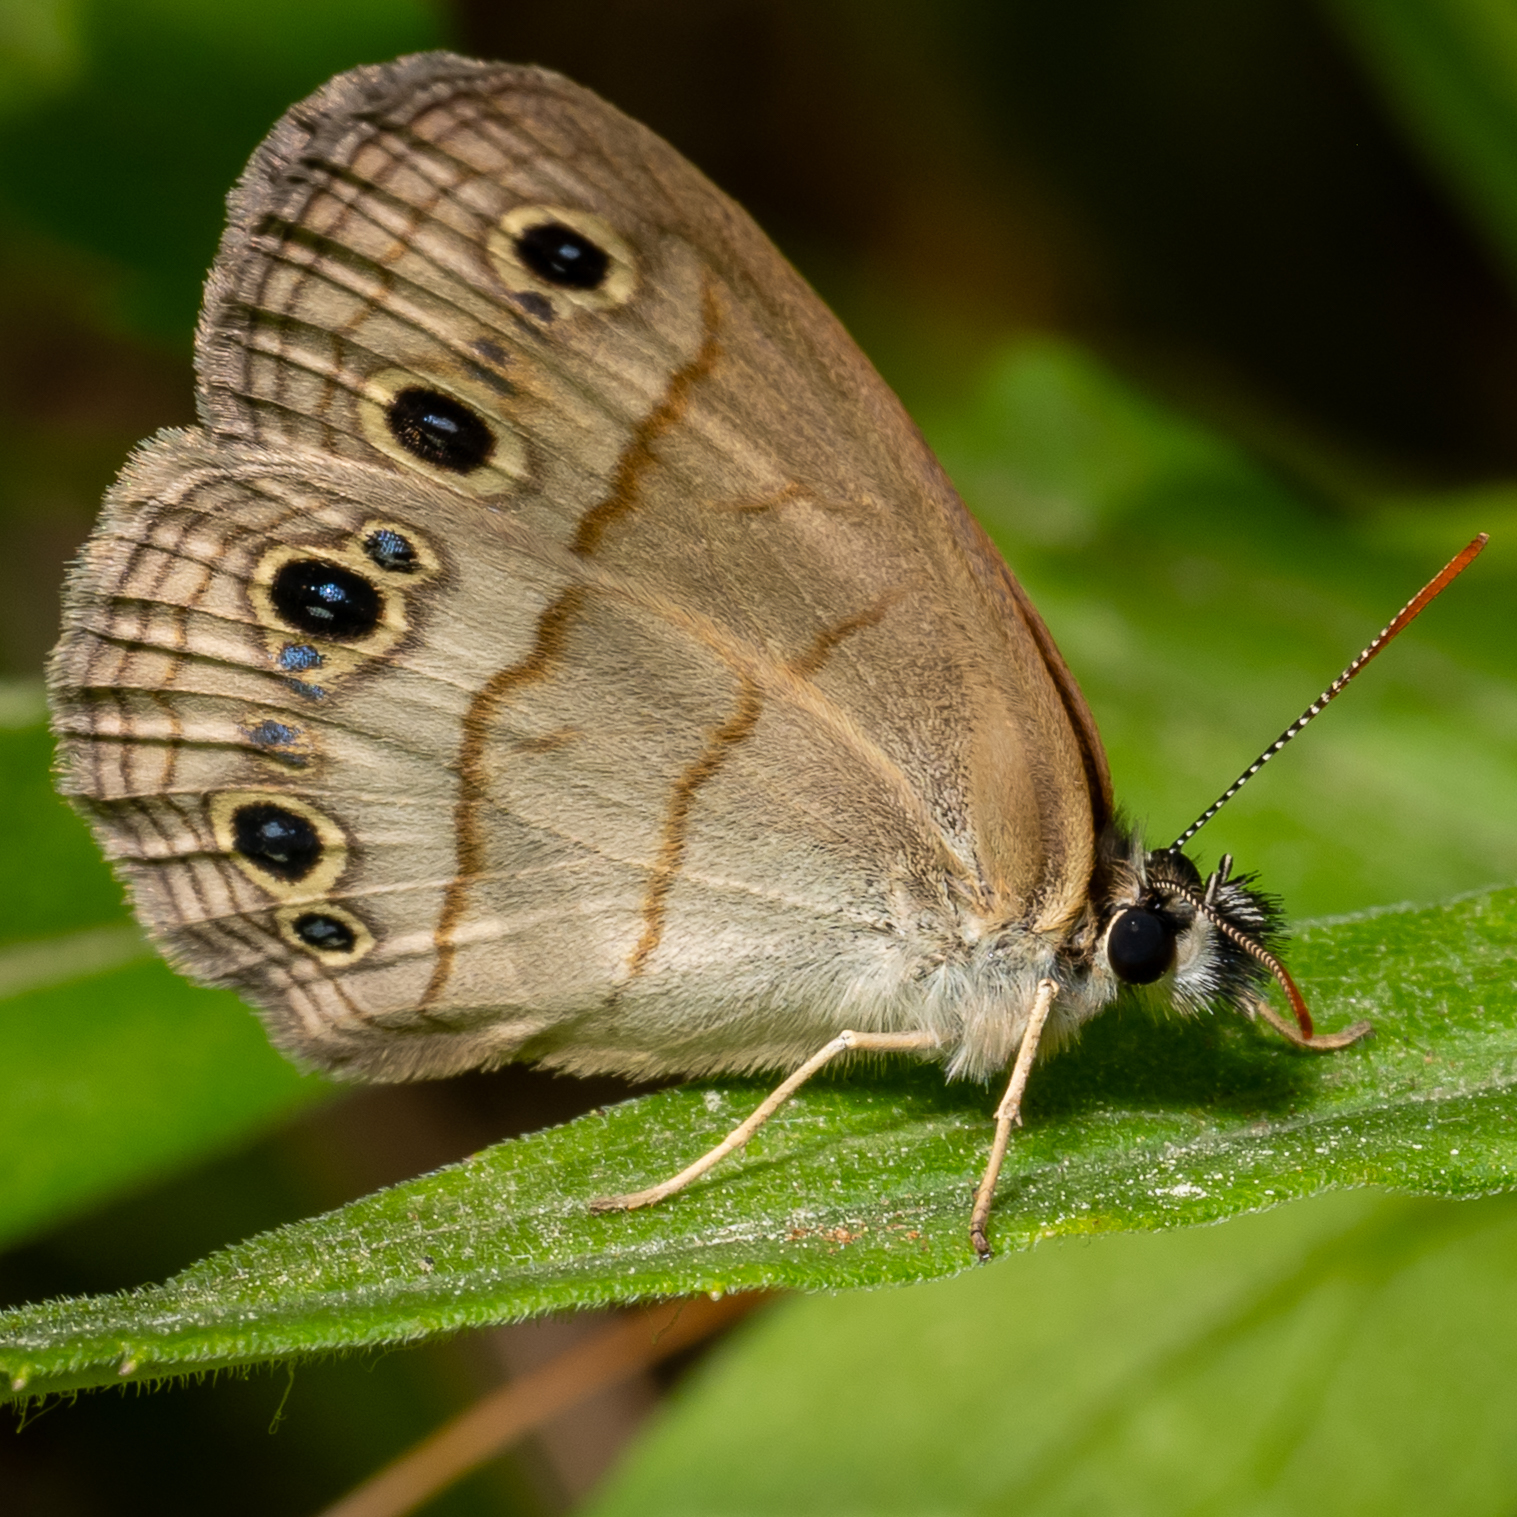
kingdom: Animalia
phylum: Arthropoda
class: Insecta
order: Lepidoptera
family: Nymphalidae
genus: Euptychia
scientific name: Euptychia cymela
